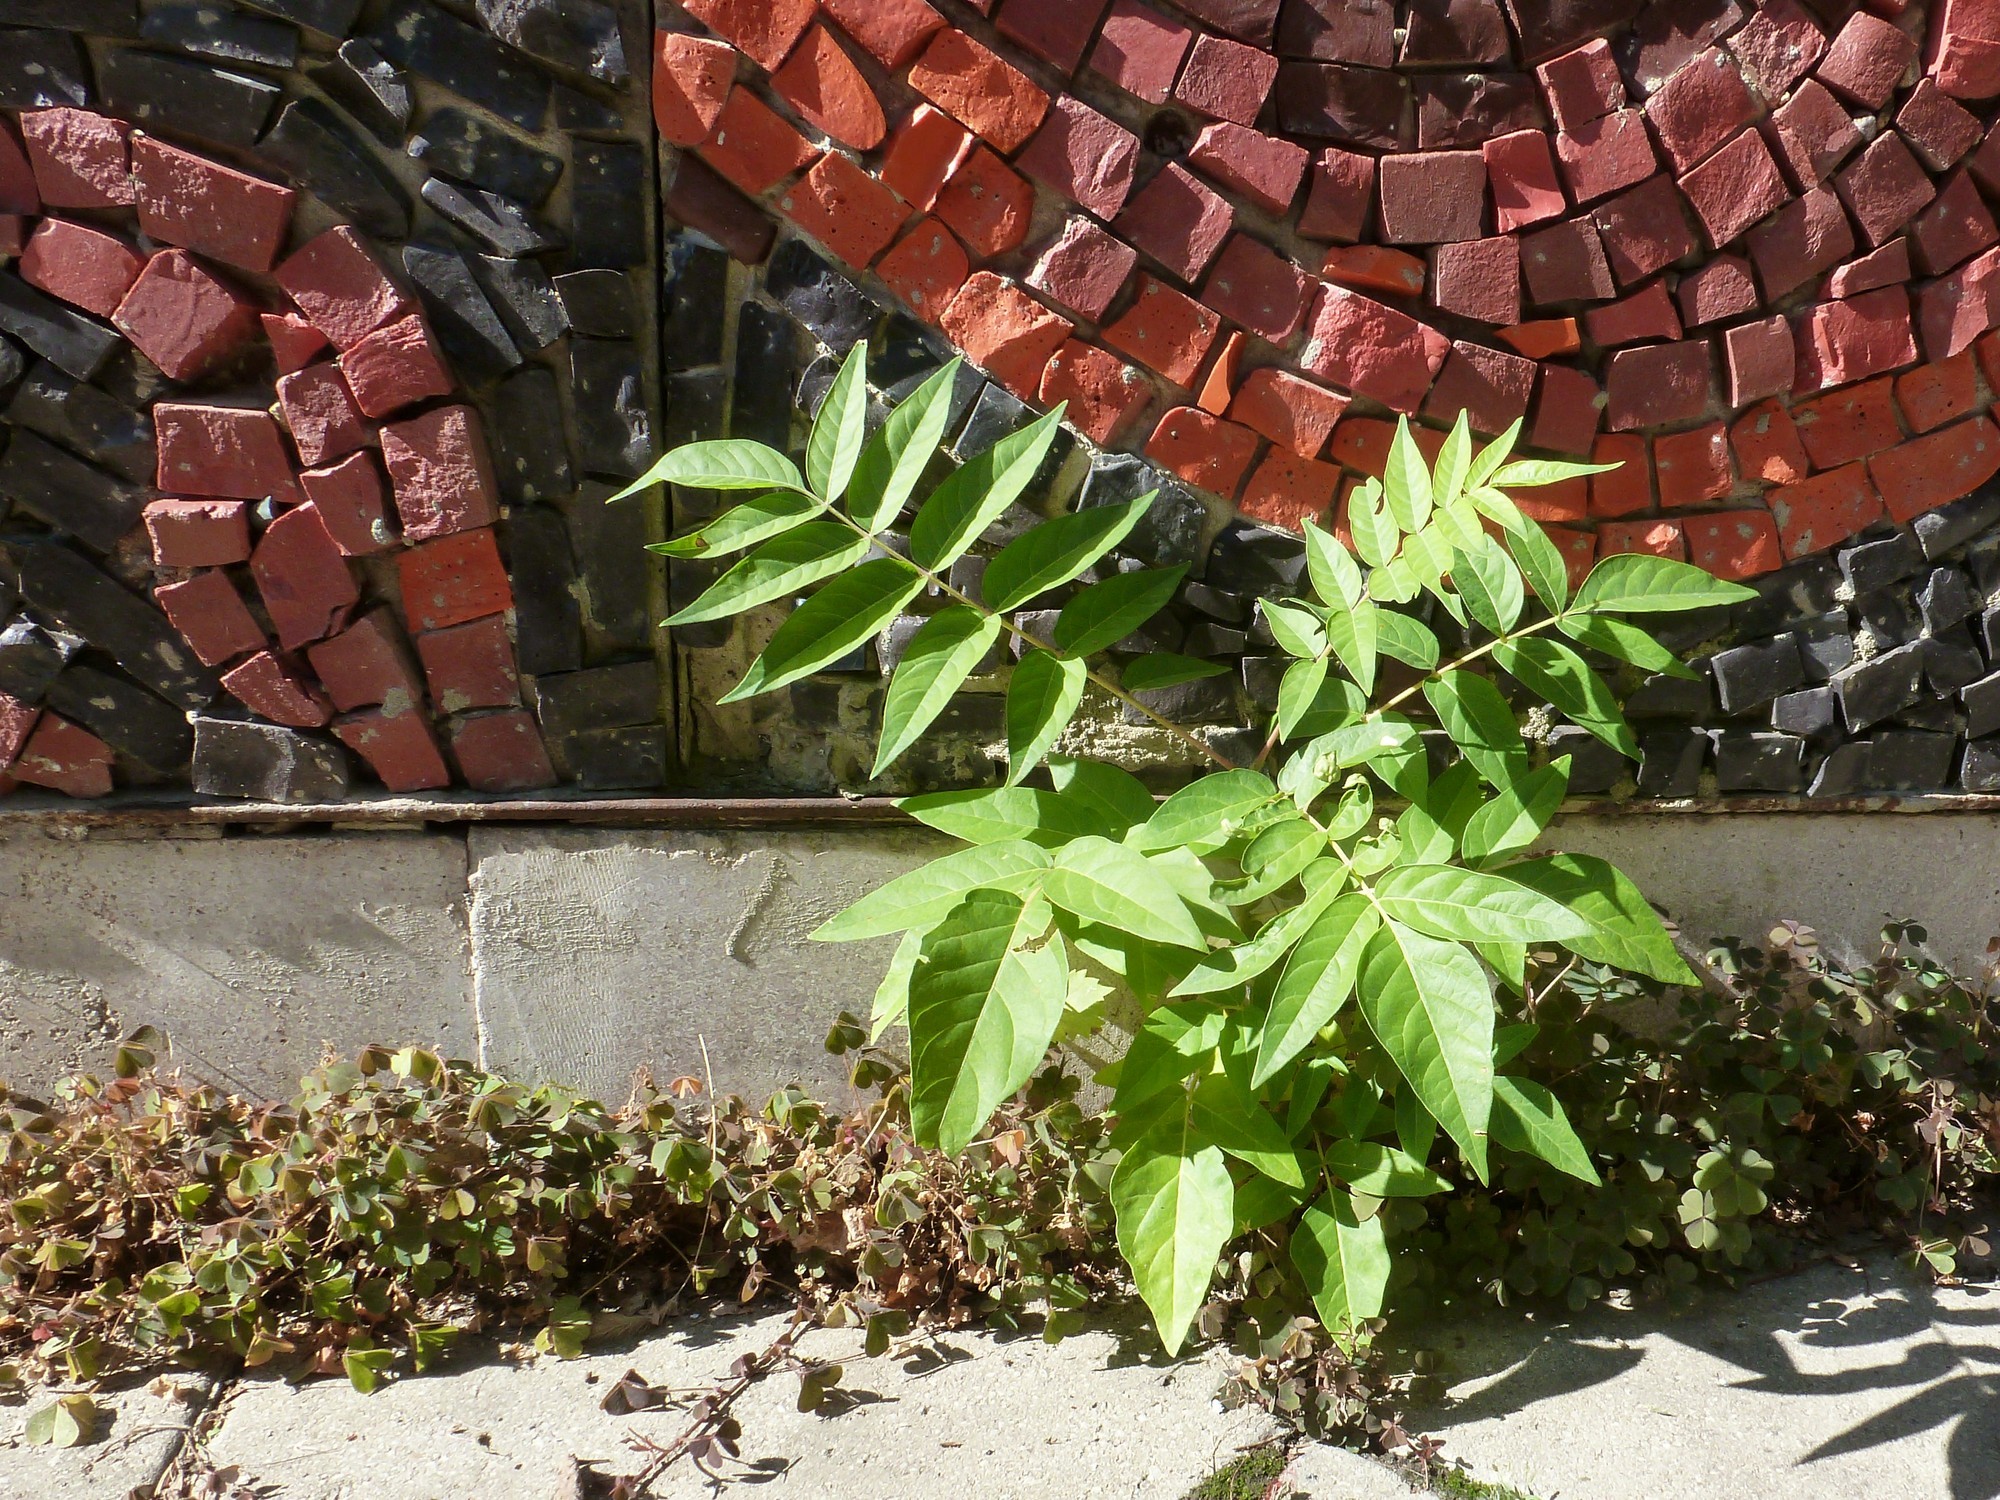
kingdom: Plantae
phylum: Tracheophyta
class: Magnoliopsida
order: Sapindales
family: Simaroubaceae
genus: Ailanthus
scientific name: Ailanthus altissima
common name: Tree-of-heaven
